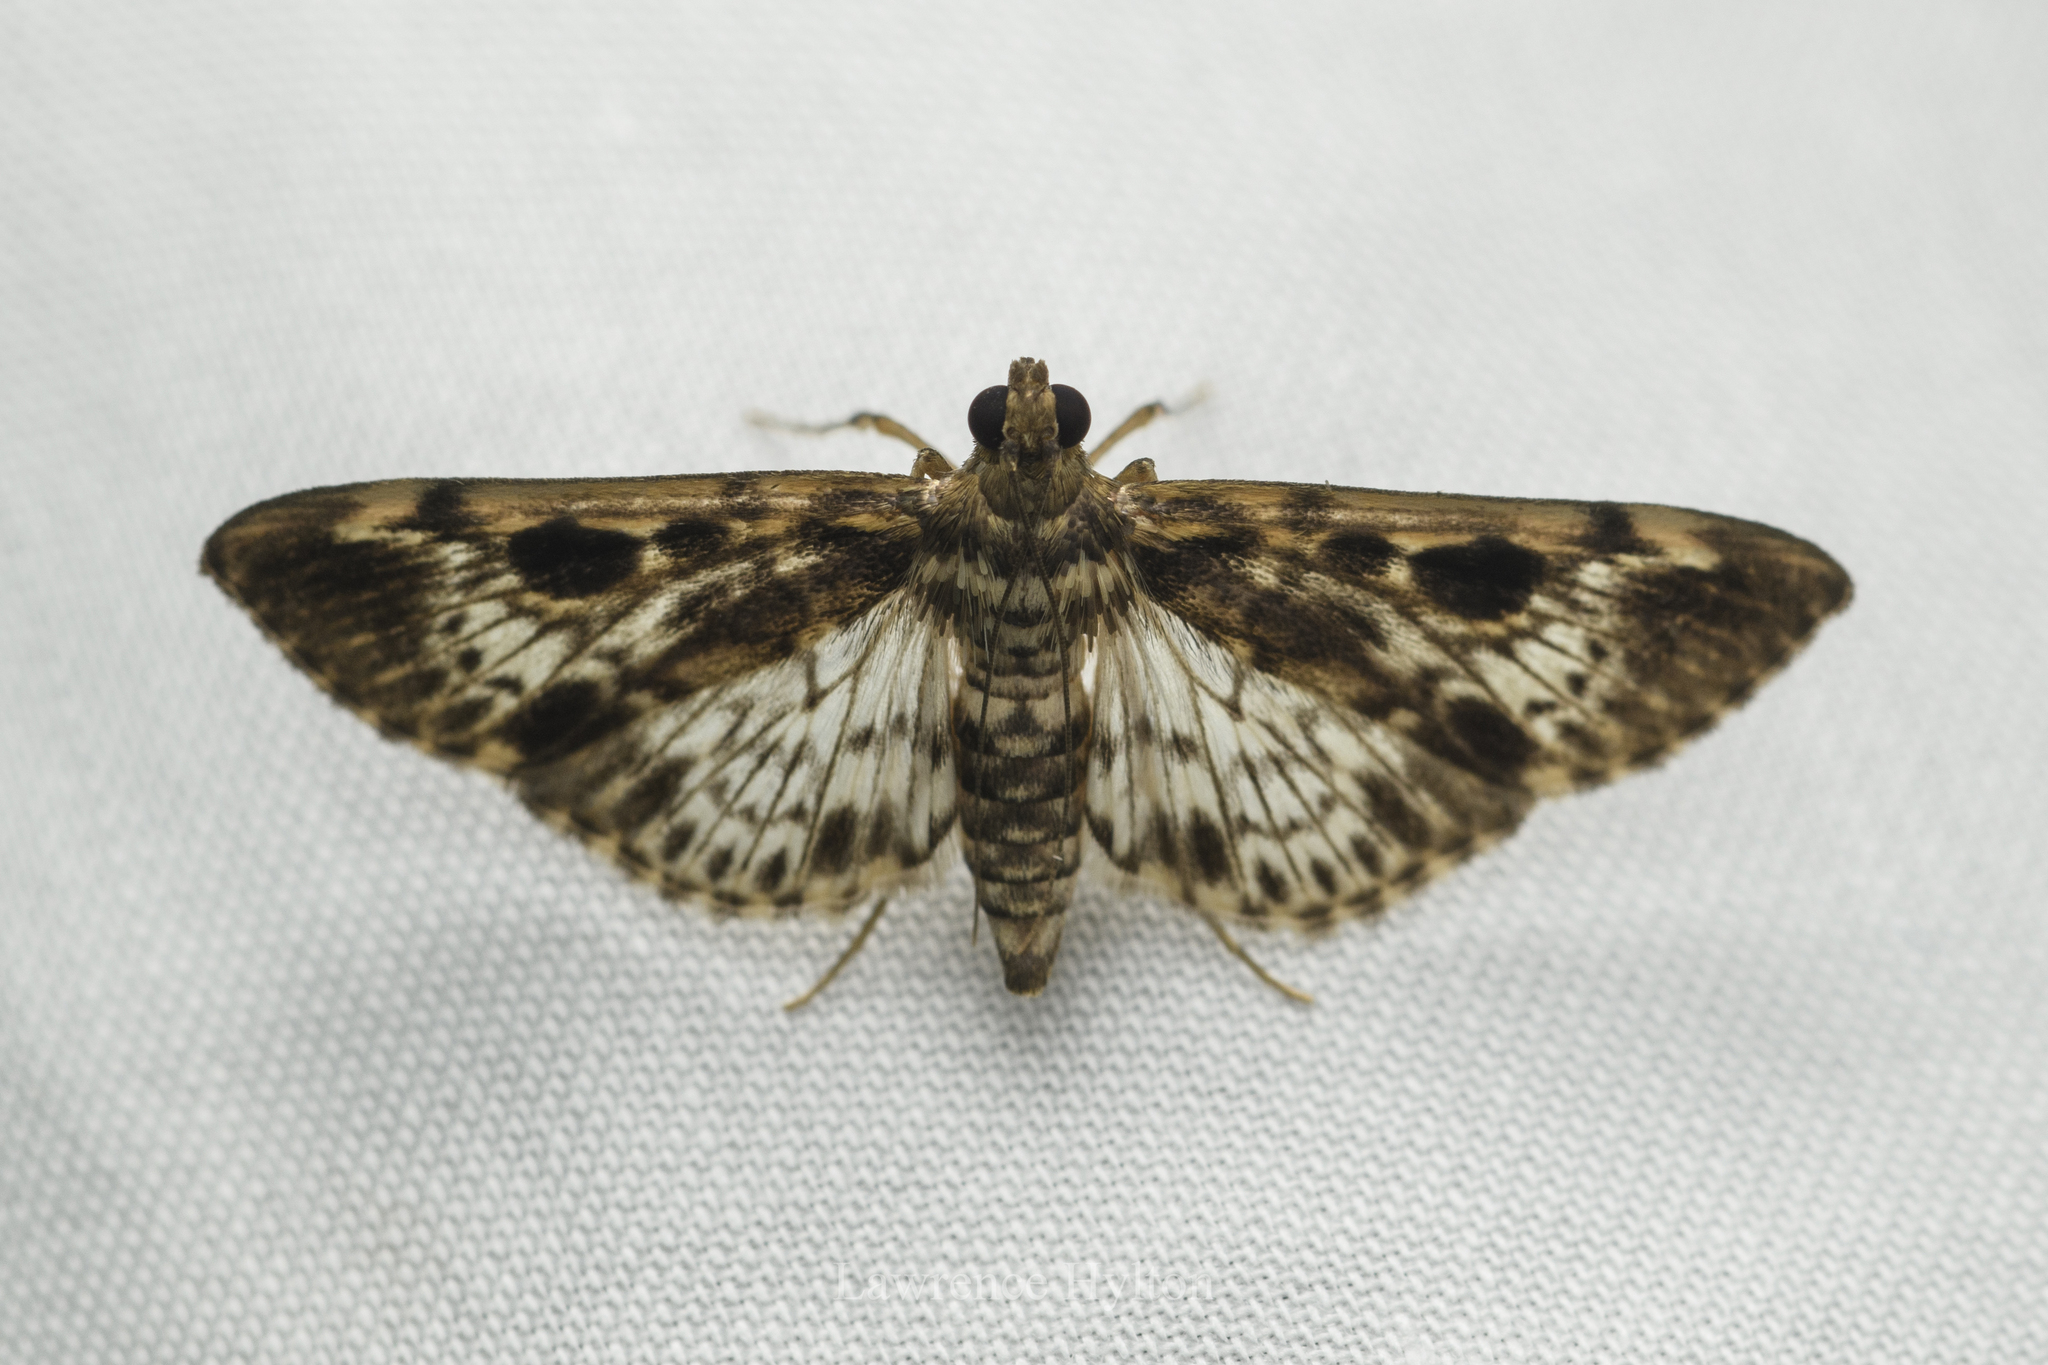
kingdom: Animalia
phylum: Arthropoda
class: Insecta
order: Lepidoptera
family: Crambidae
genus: Rhimphaliodes
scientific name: Rhimphaliodes macrostigma
